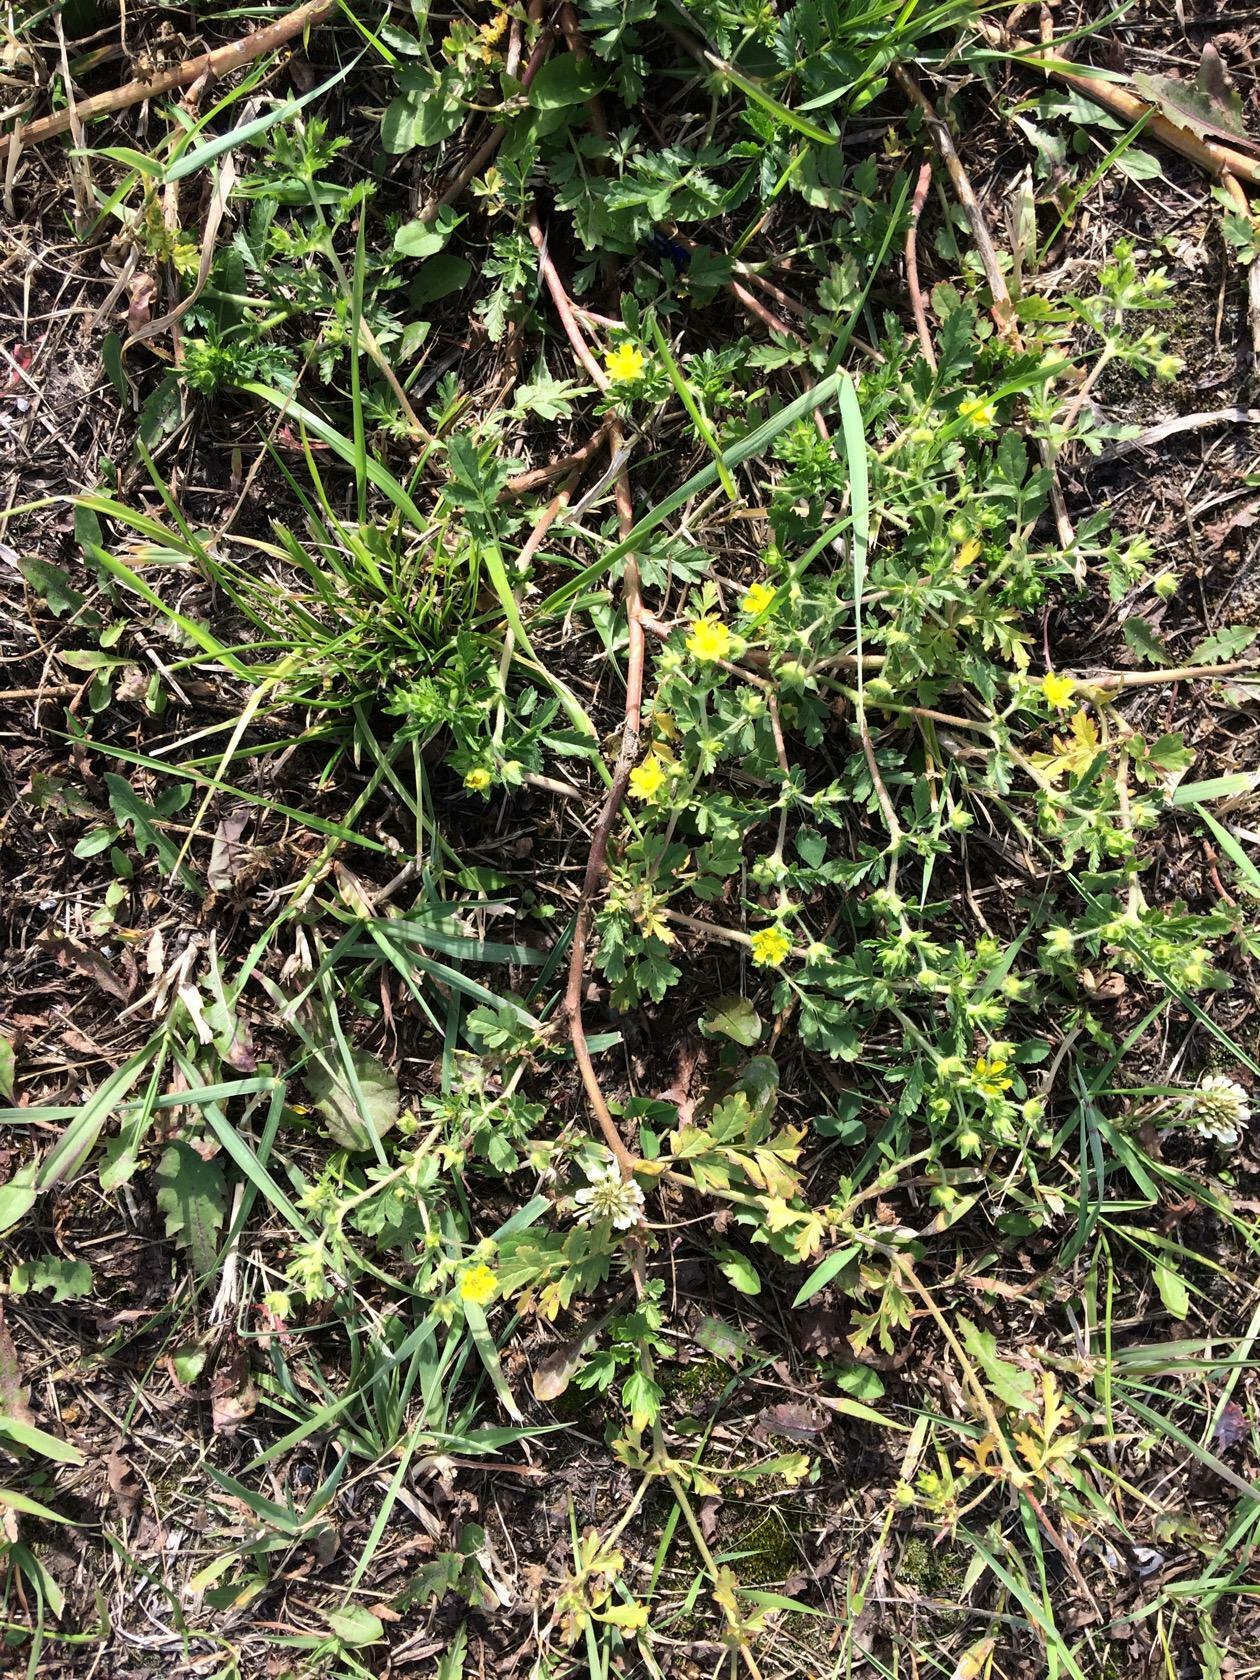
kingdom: Plantae
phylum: Tracheophyta
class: Magnoliopsida
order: Rosales
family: Rosaceae
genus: Potentilla
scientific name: Potentilla supina
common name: Prostrate cinquefoil
